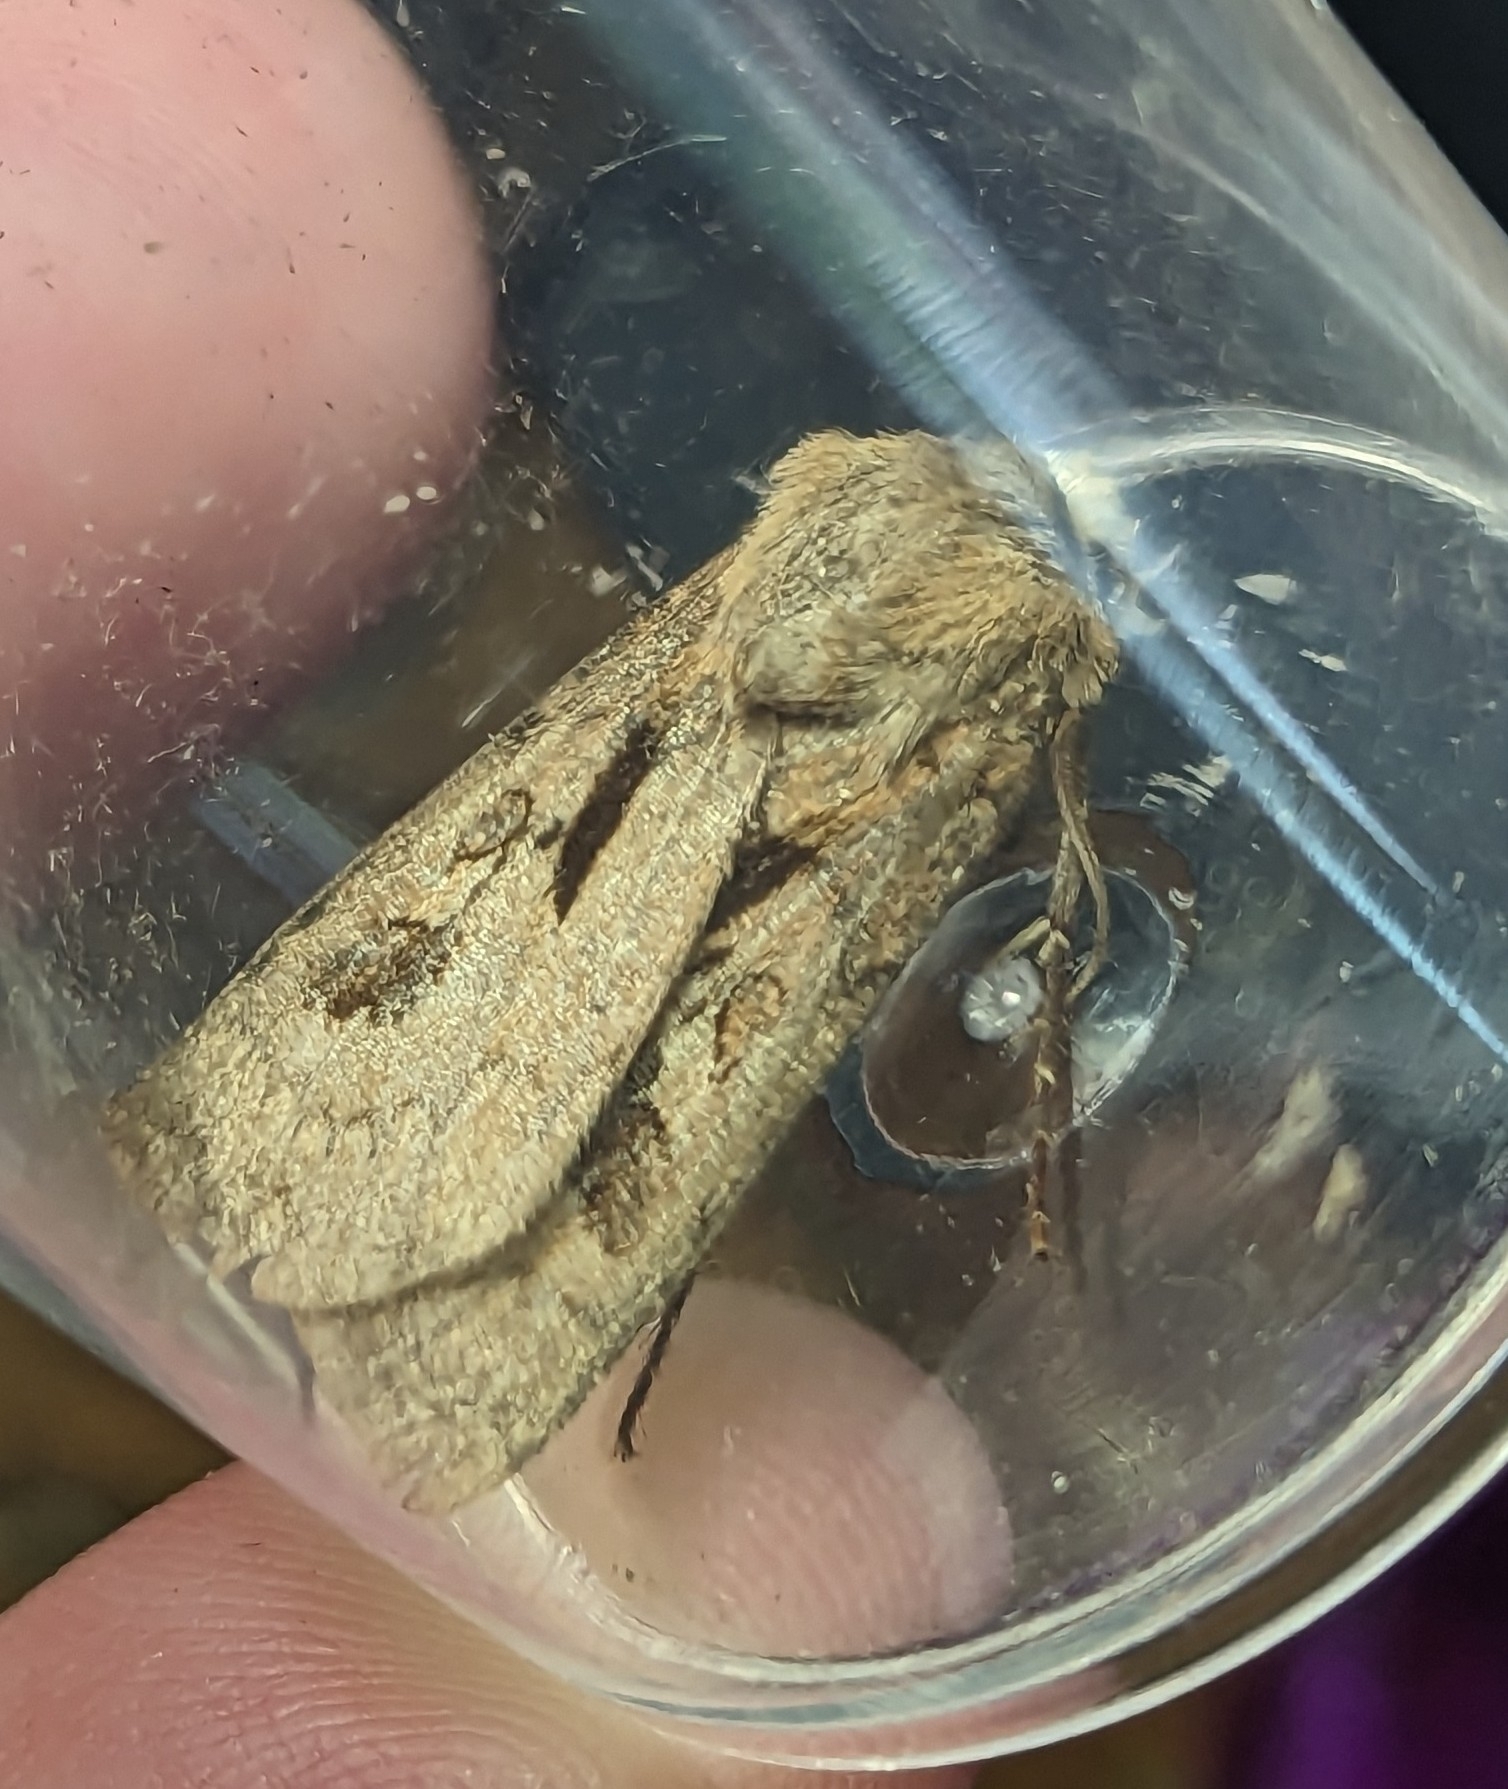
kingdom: Animalia
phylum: Arthropoda
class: Insecta
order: Lepidoptera
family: Noctuidae
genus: Agrotis
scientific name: Agrotis exclamationis
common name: Heart and dart
